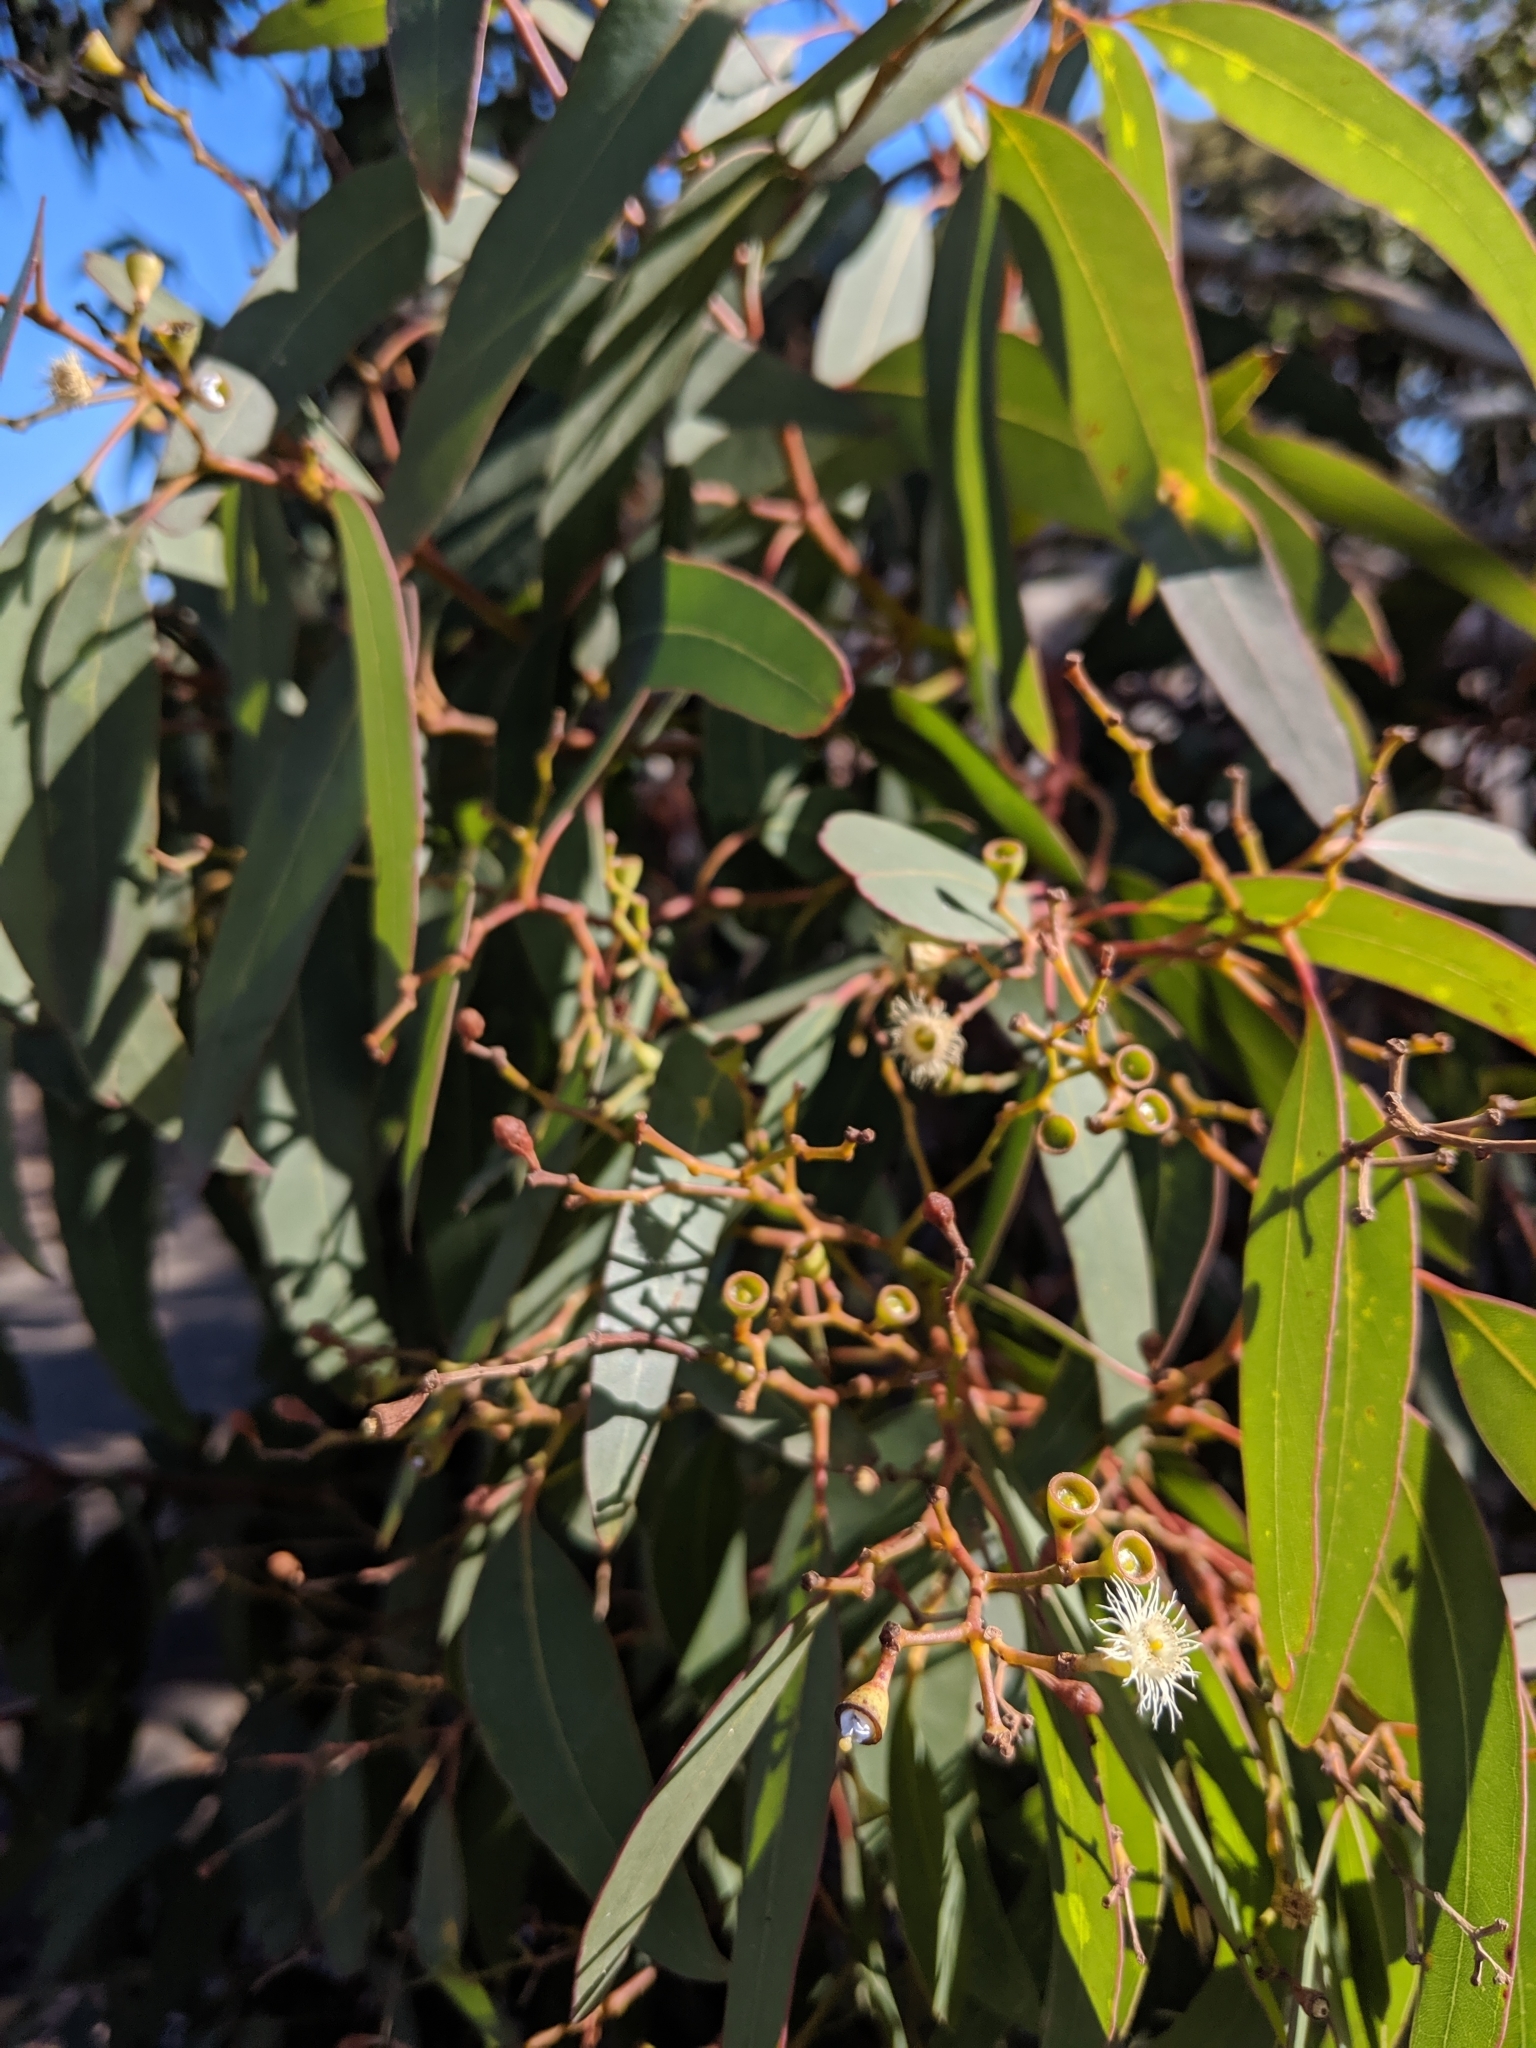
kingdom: Plantae
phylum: Tracheophyta
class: Magnoliopsida
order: Myrtales
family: Myrtaceae
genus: Eucalyptus
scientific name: Eucalyptus fasciculosa
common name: Hill gum
